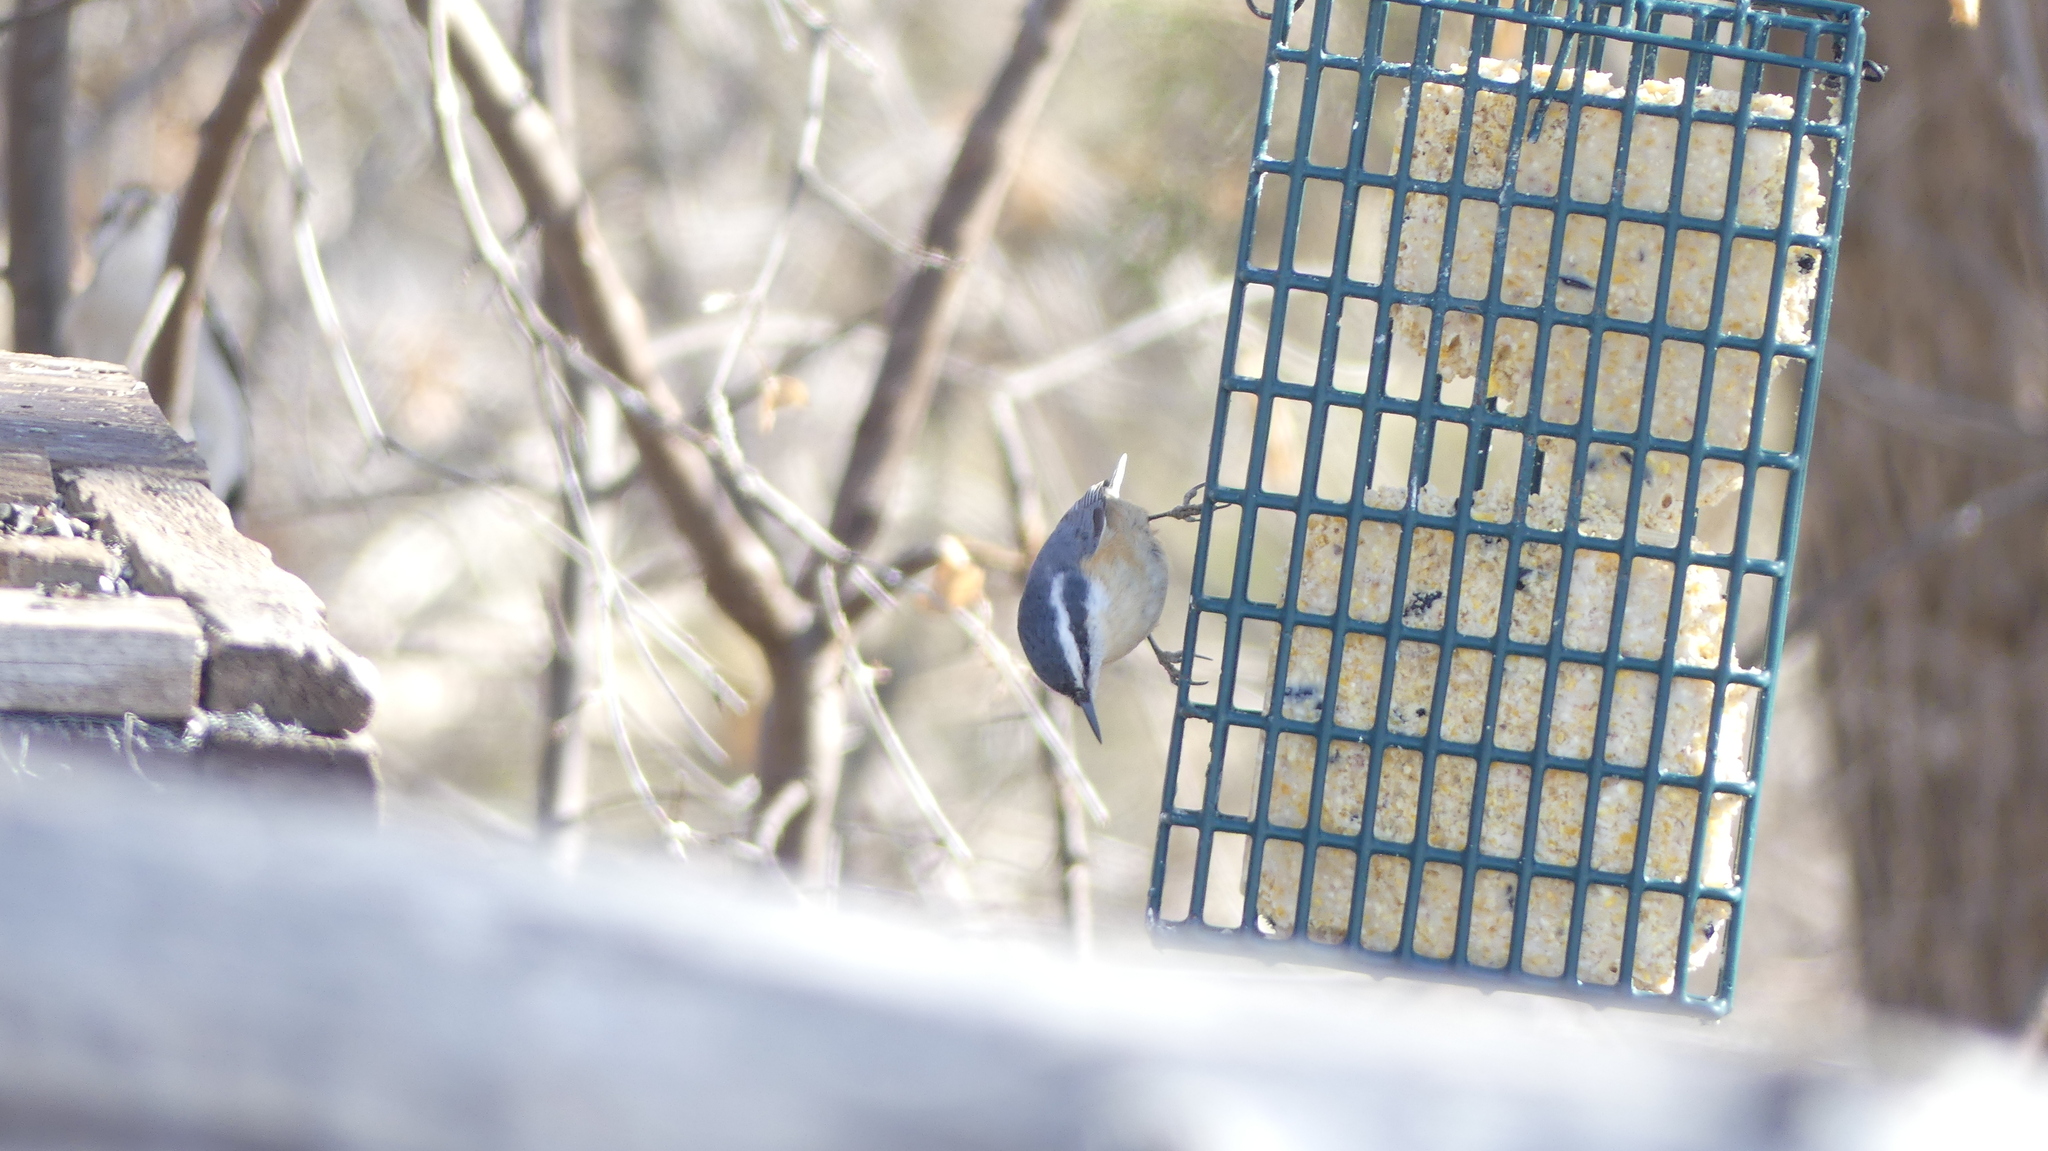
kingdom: Animalia
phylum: Chordata
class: Aves
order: Passeriformes
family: Sittidae
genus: Sitta
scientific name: Sitta canadensis
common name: Red-breasted nuthatch
